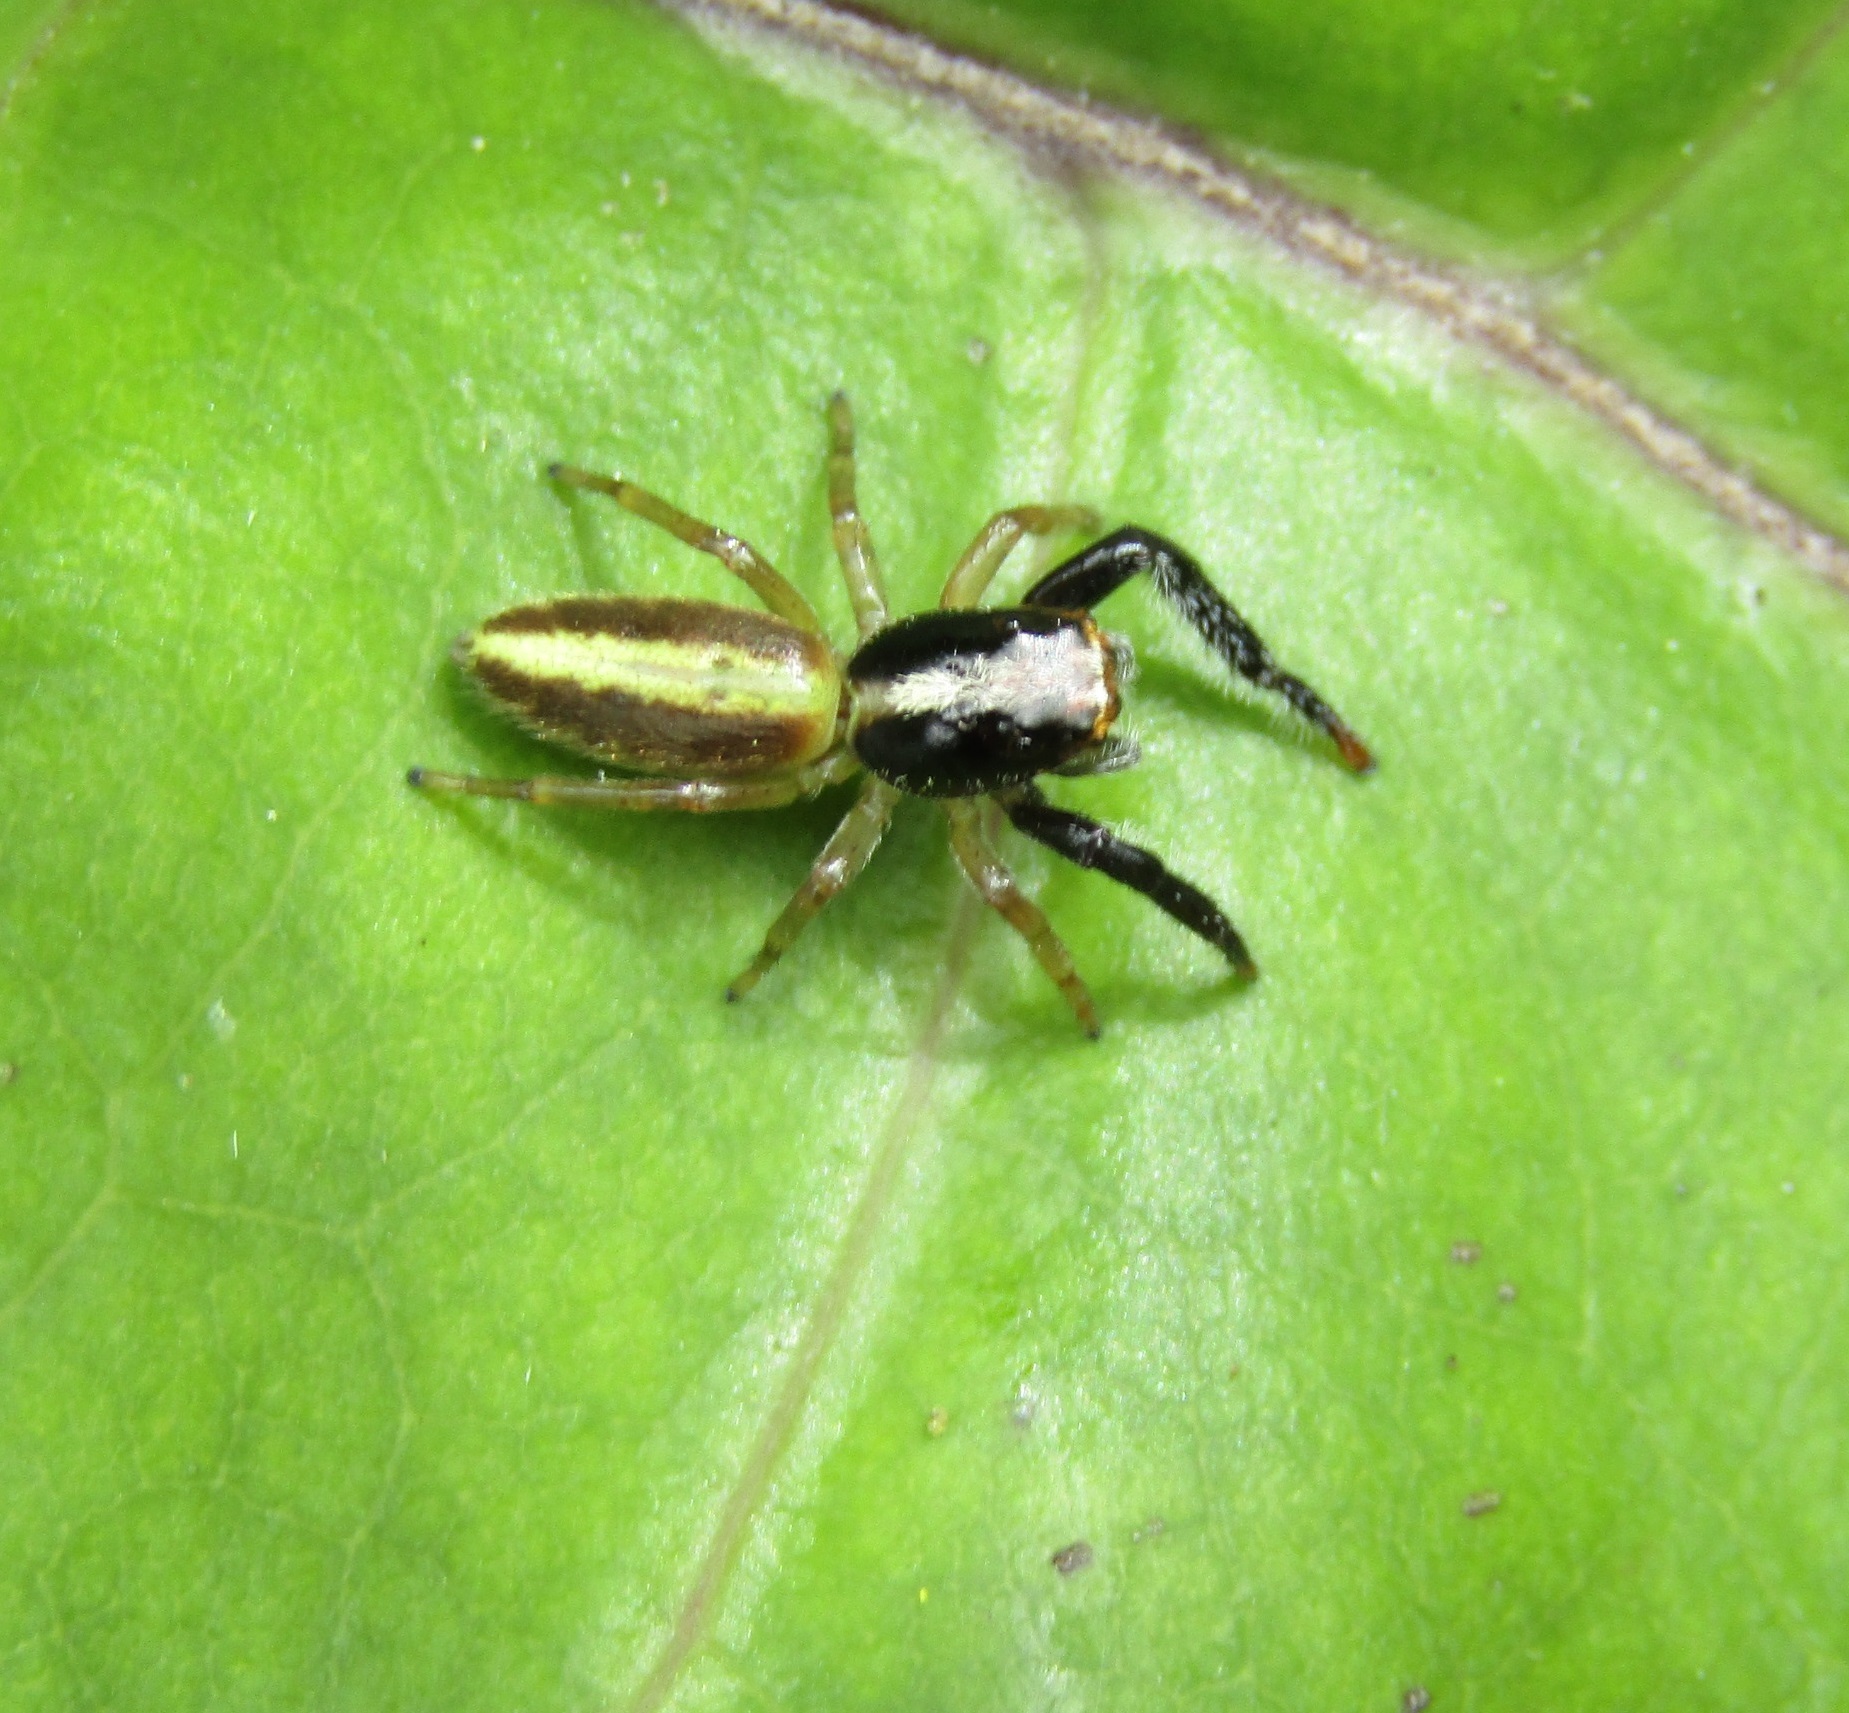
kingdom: Animalia
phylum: Arthropoda
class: Arachnida
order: Araneae
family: Salticidae
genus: Trite
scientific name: Trite planiceps
